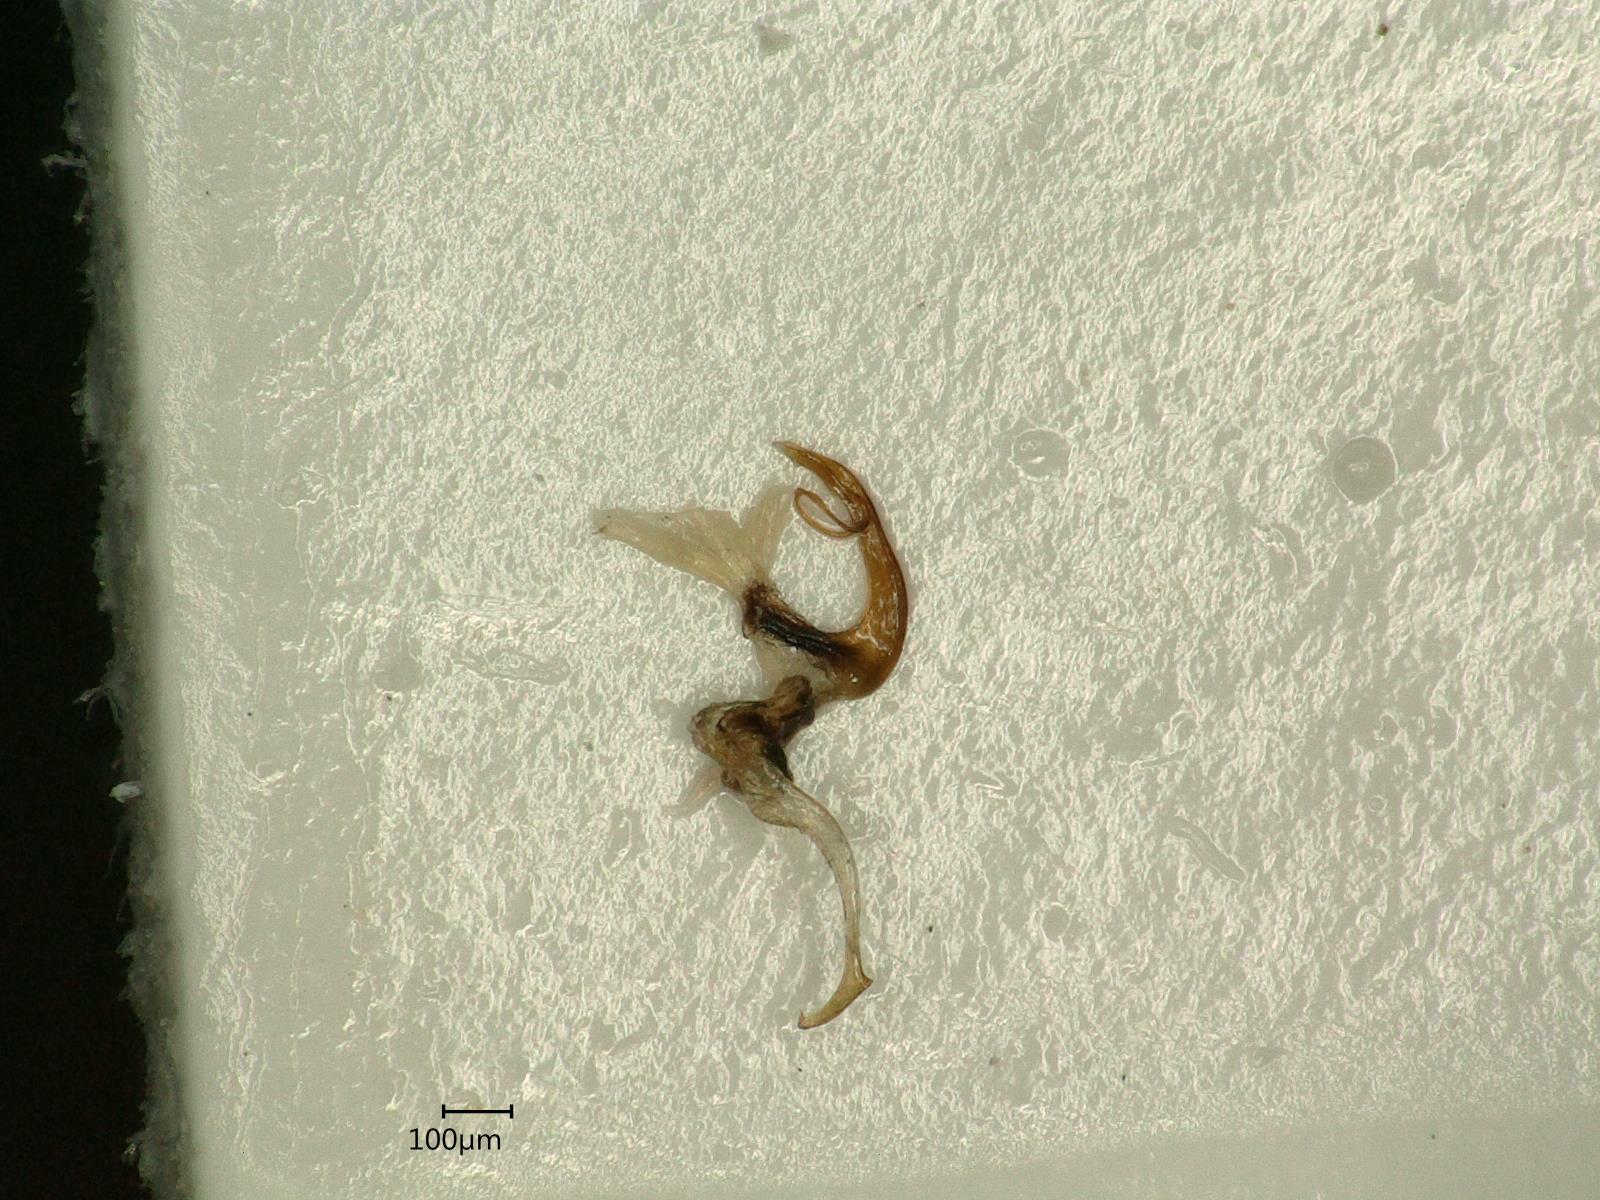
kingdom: Animalia
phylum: Arthropoda
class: Insecta
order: Hemiptera
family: Cicadellidae
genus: Eupteryx
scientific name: Eupteryx aurata
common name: Leafhopper
